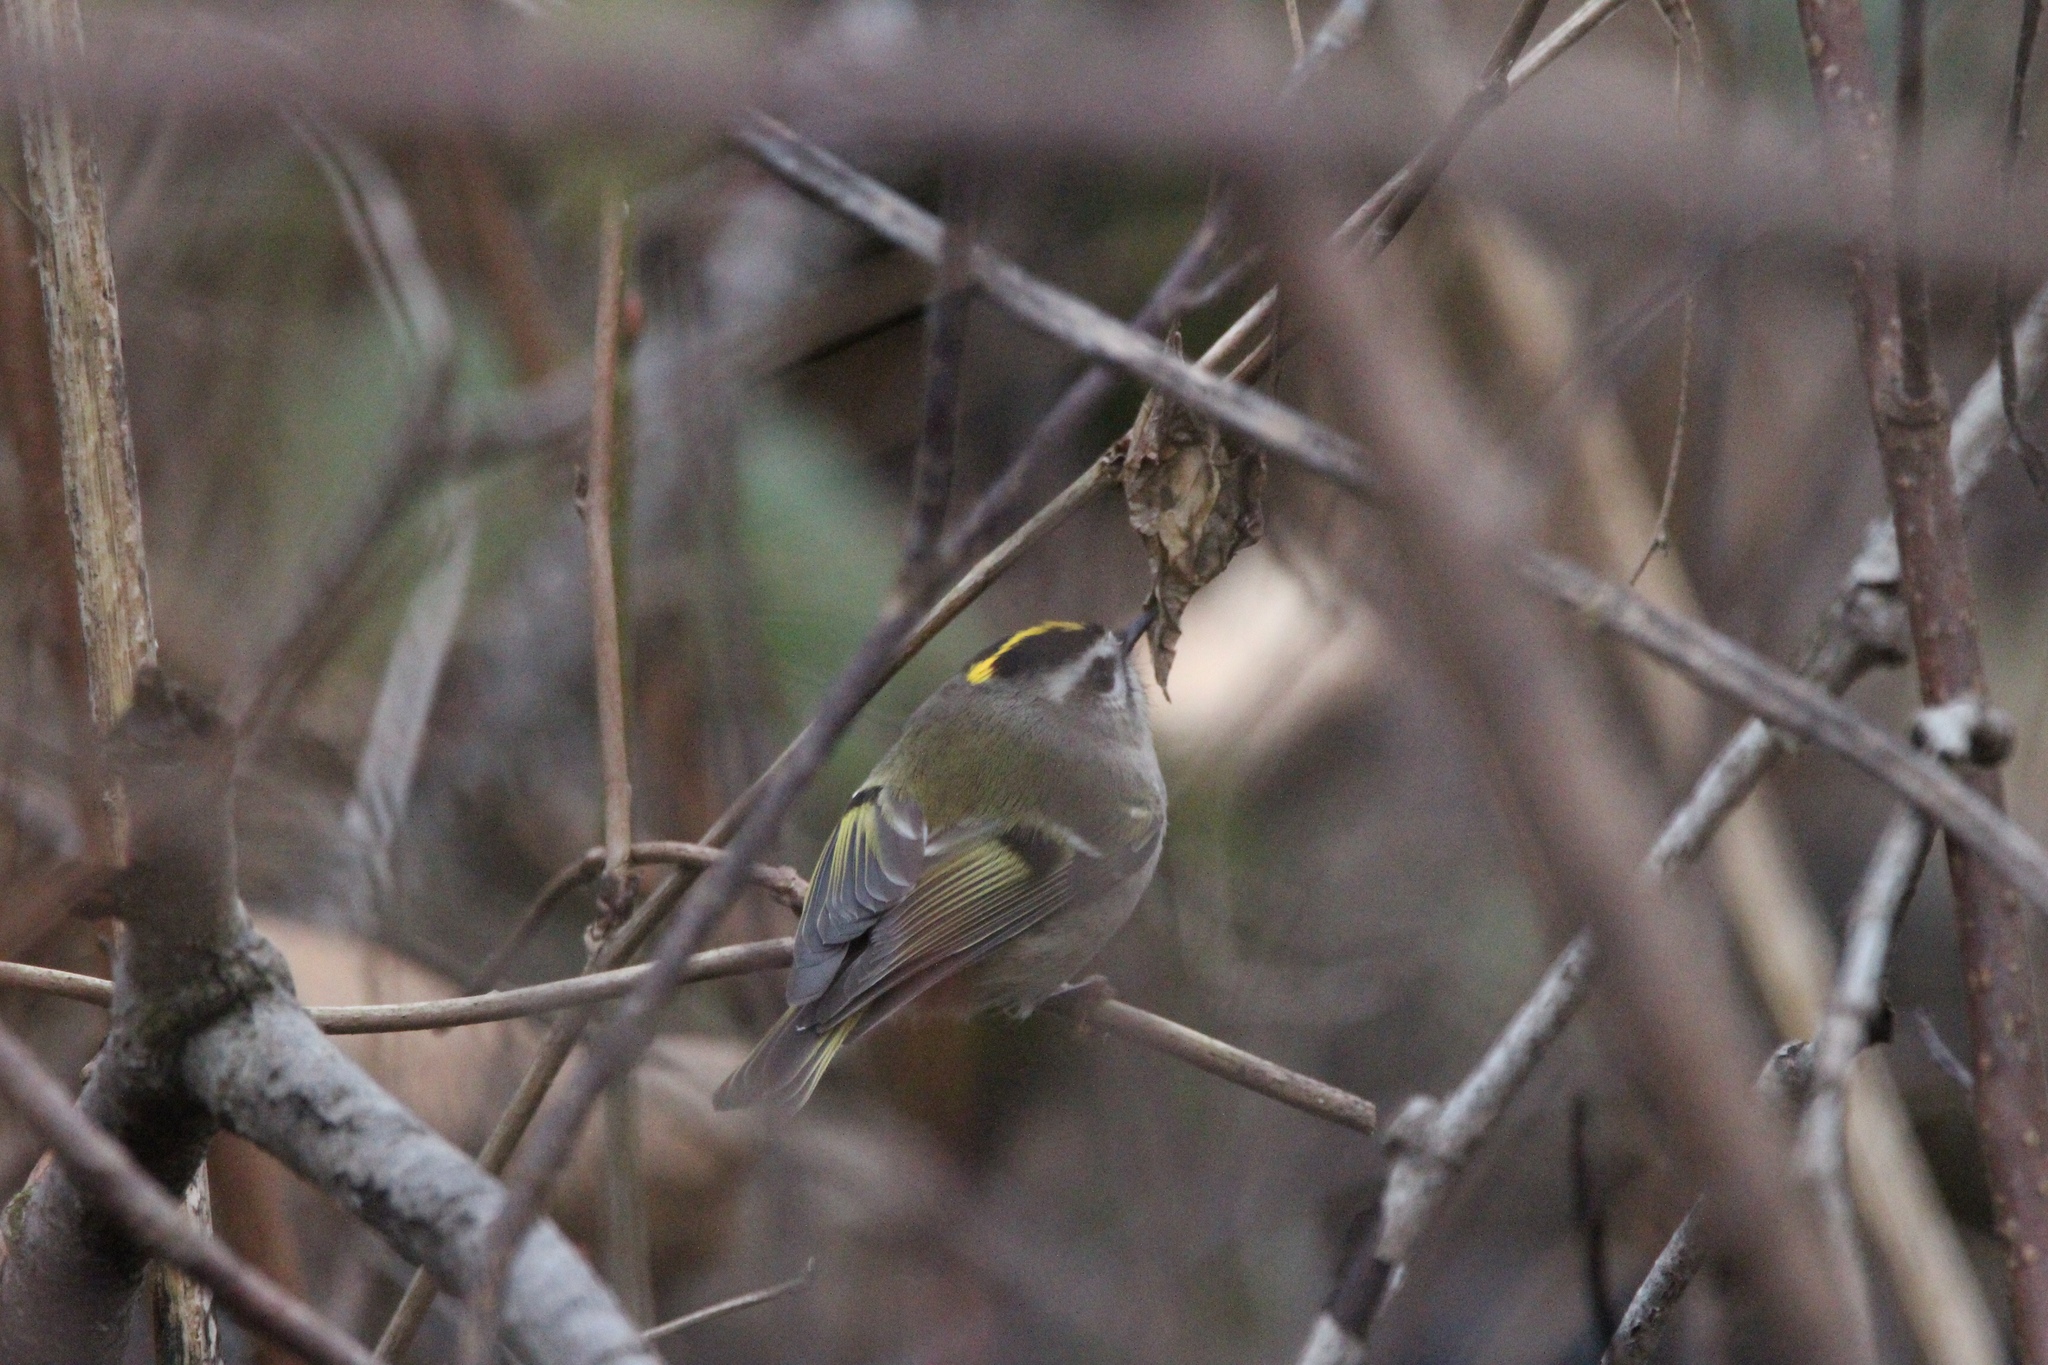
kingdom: Animalia
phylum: Chordata
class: Aves
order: Passeriformes
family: Regulidae
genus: Regulus
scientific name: Regulus satrapa
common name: Golden-crowned kinglet
